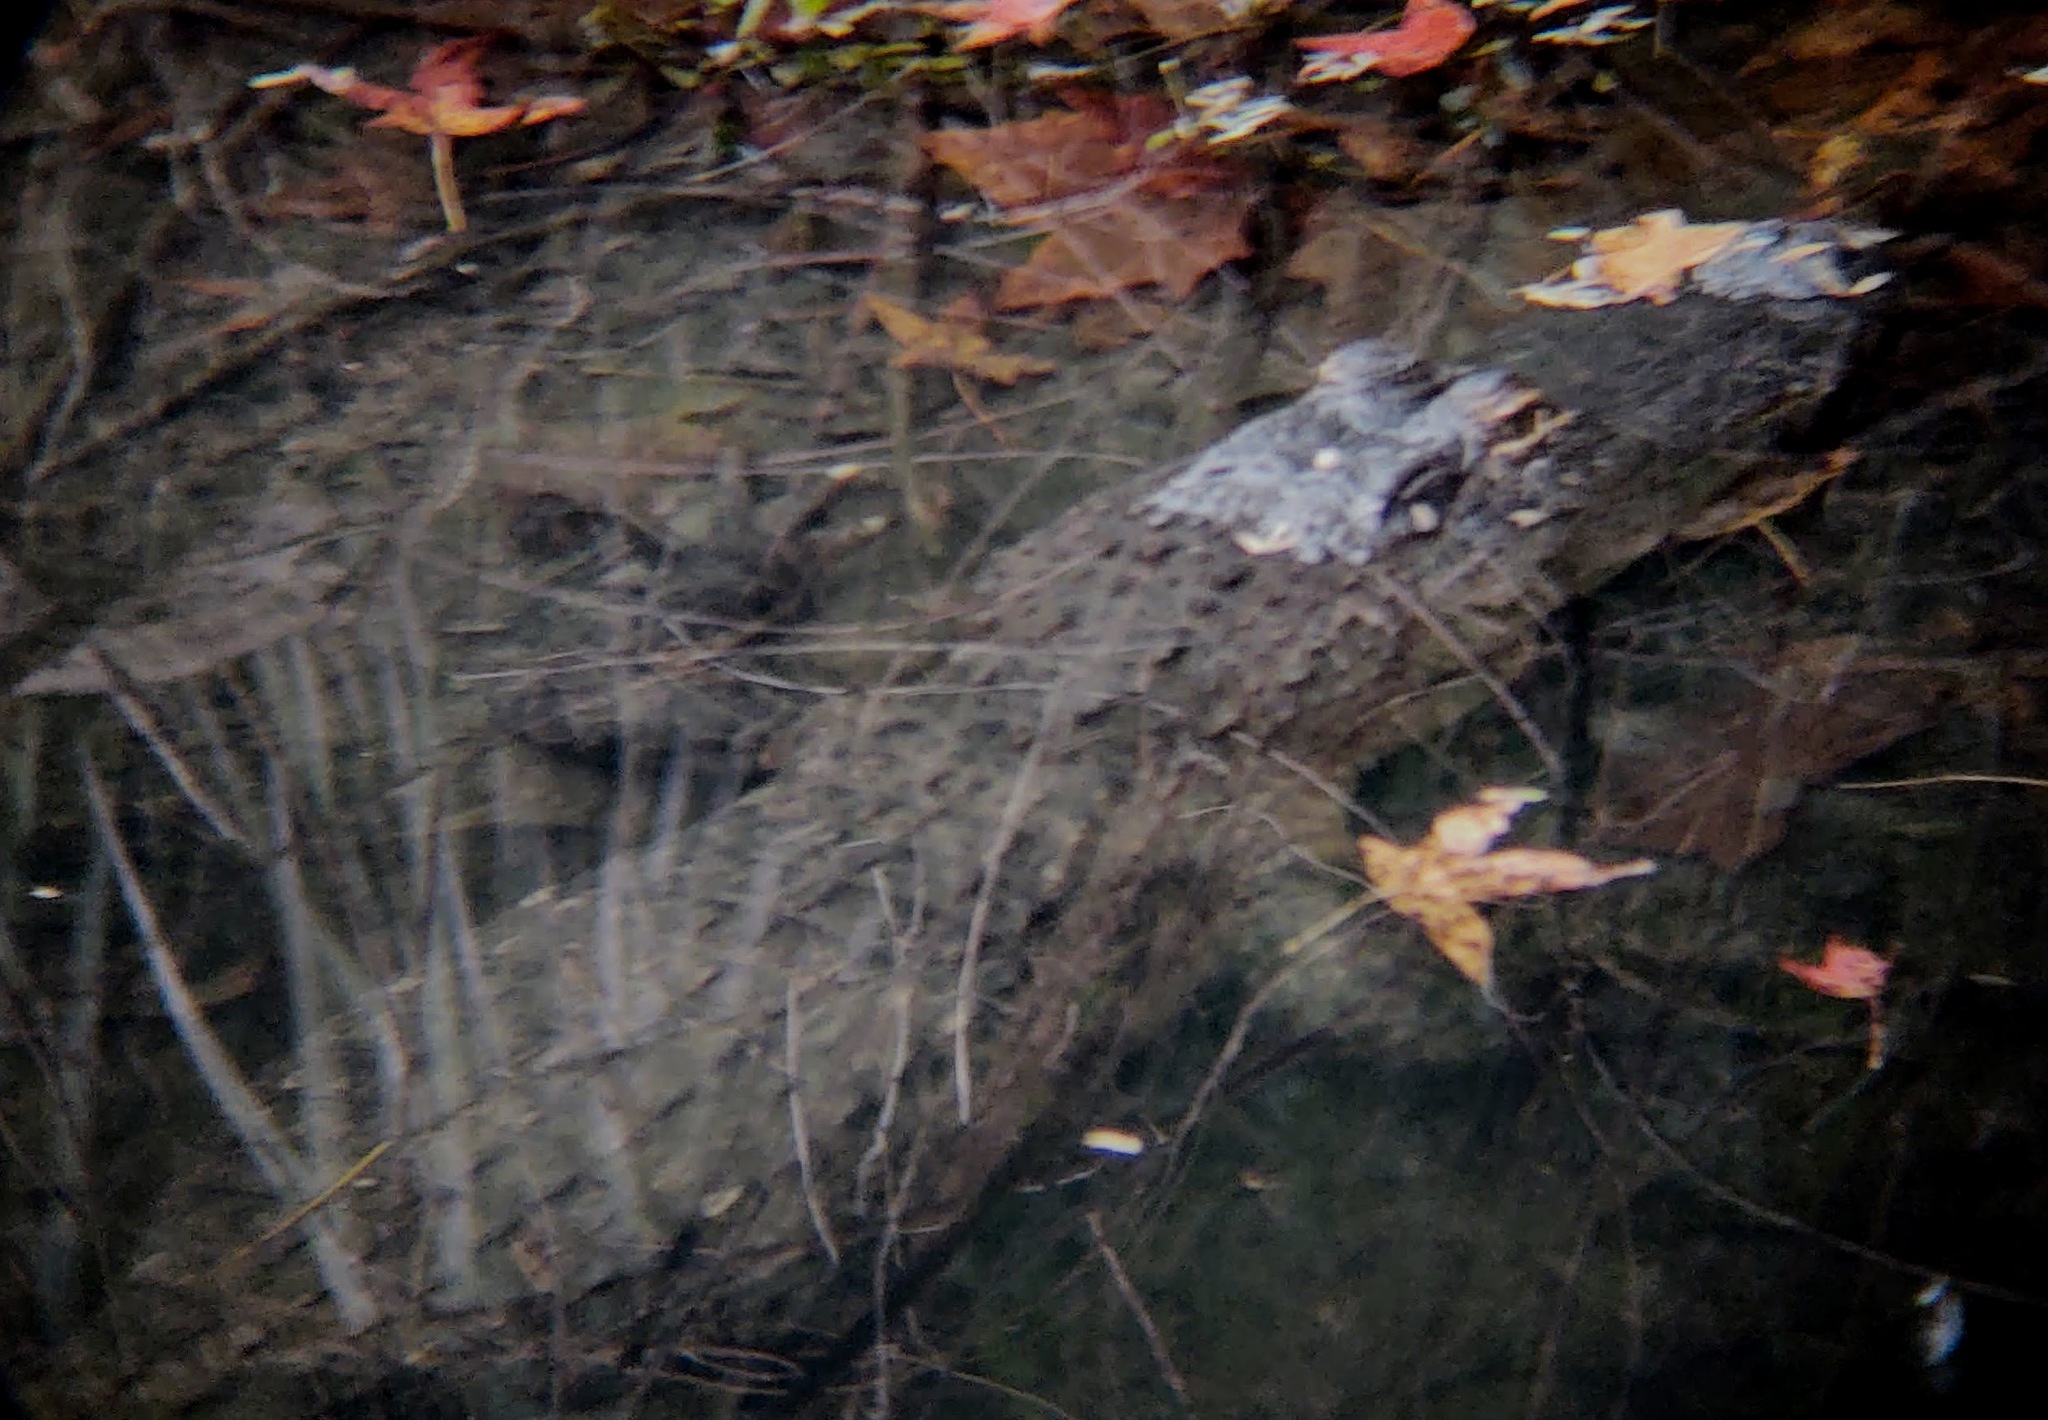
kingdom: Animalia
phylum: Chordata
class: Crocodylia
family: Alligatoridae
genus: Alligator
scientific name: Alligator mississippiensis
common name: American alligator
